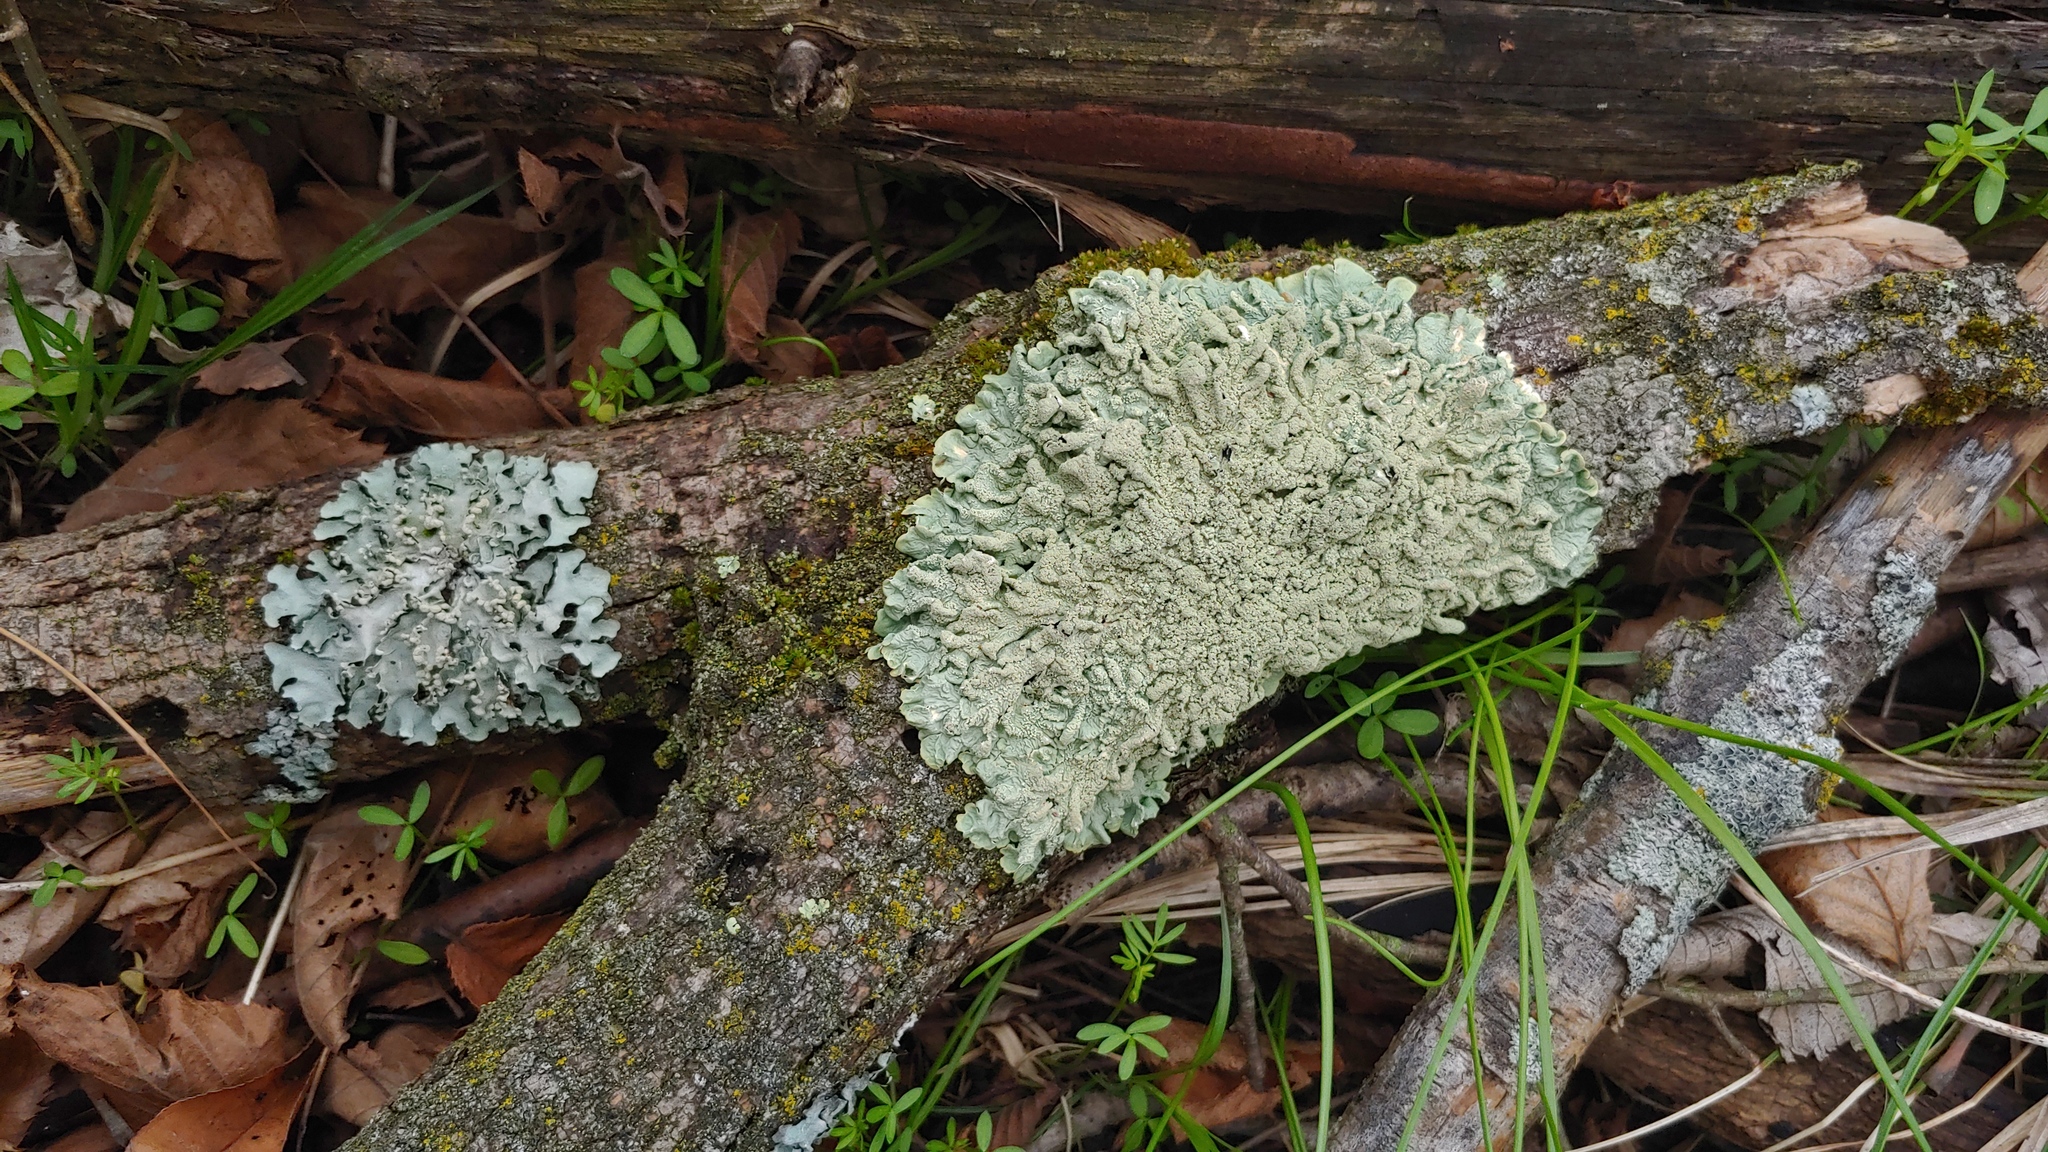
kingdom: Fungi
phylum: Ascomycota
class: Lecanoromycetes
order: Lecanorales
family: Parmeliaceae
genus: Flavoparmelia
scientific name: Flavoparmelia caperata
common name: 40-mile per hour lichen
